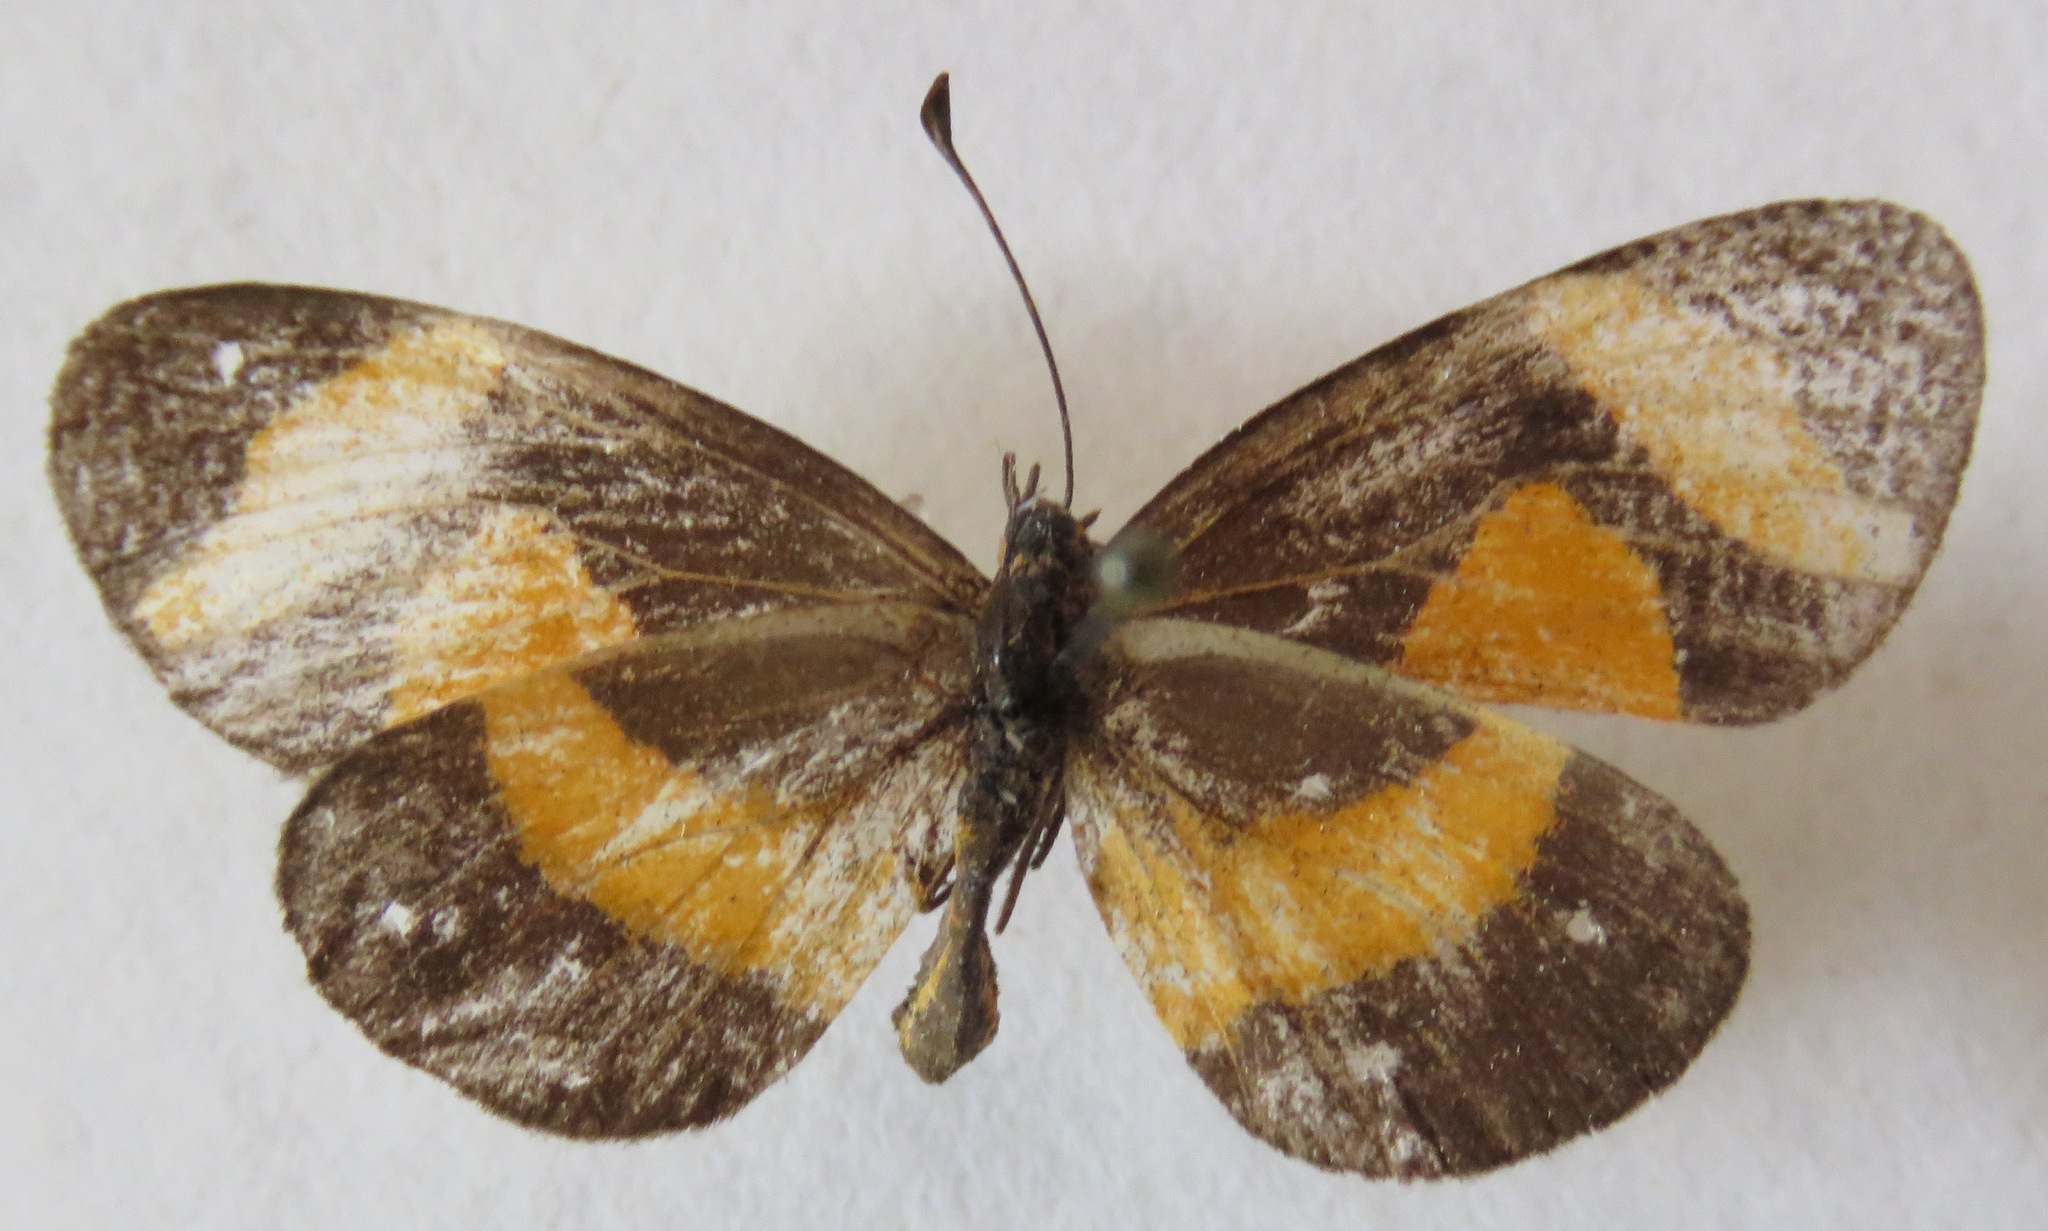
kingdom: Animalia
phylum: Arthropoda
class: Insecta
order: Lepidoptera
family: Nymphalidae
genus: Microtia
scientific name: Microtia elva
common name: Elf
